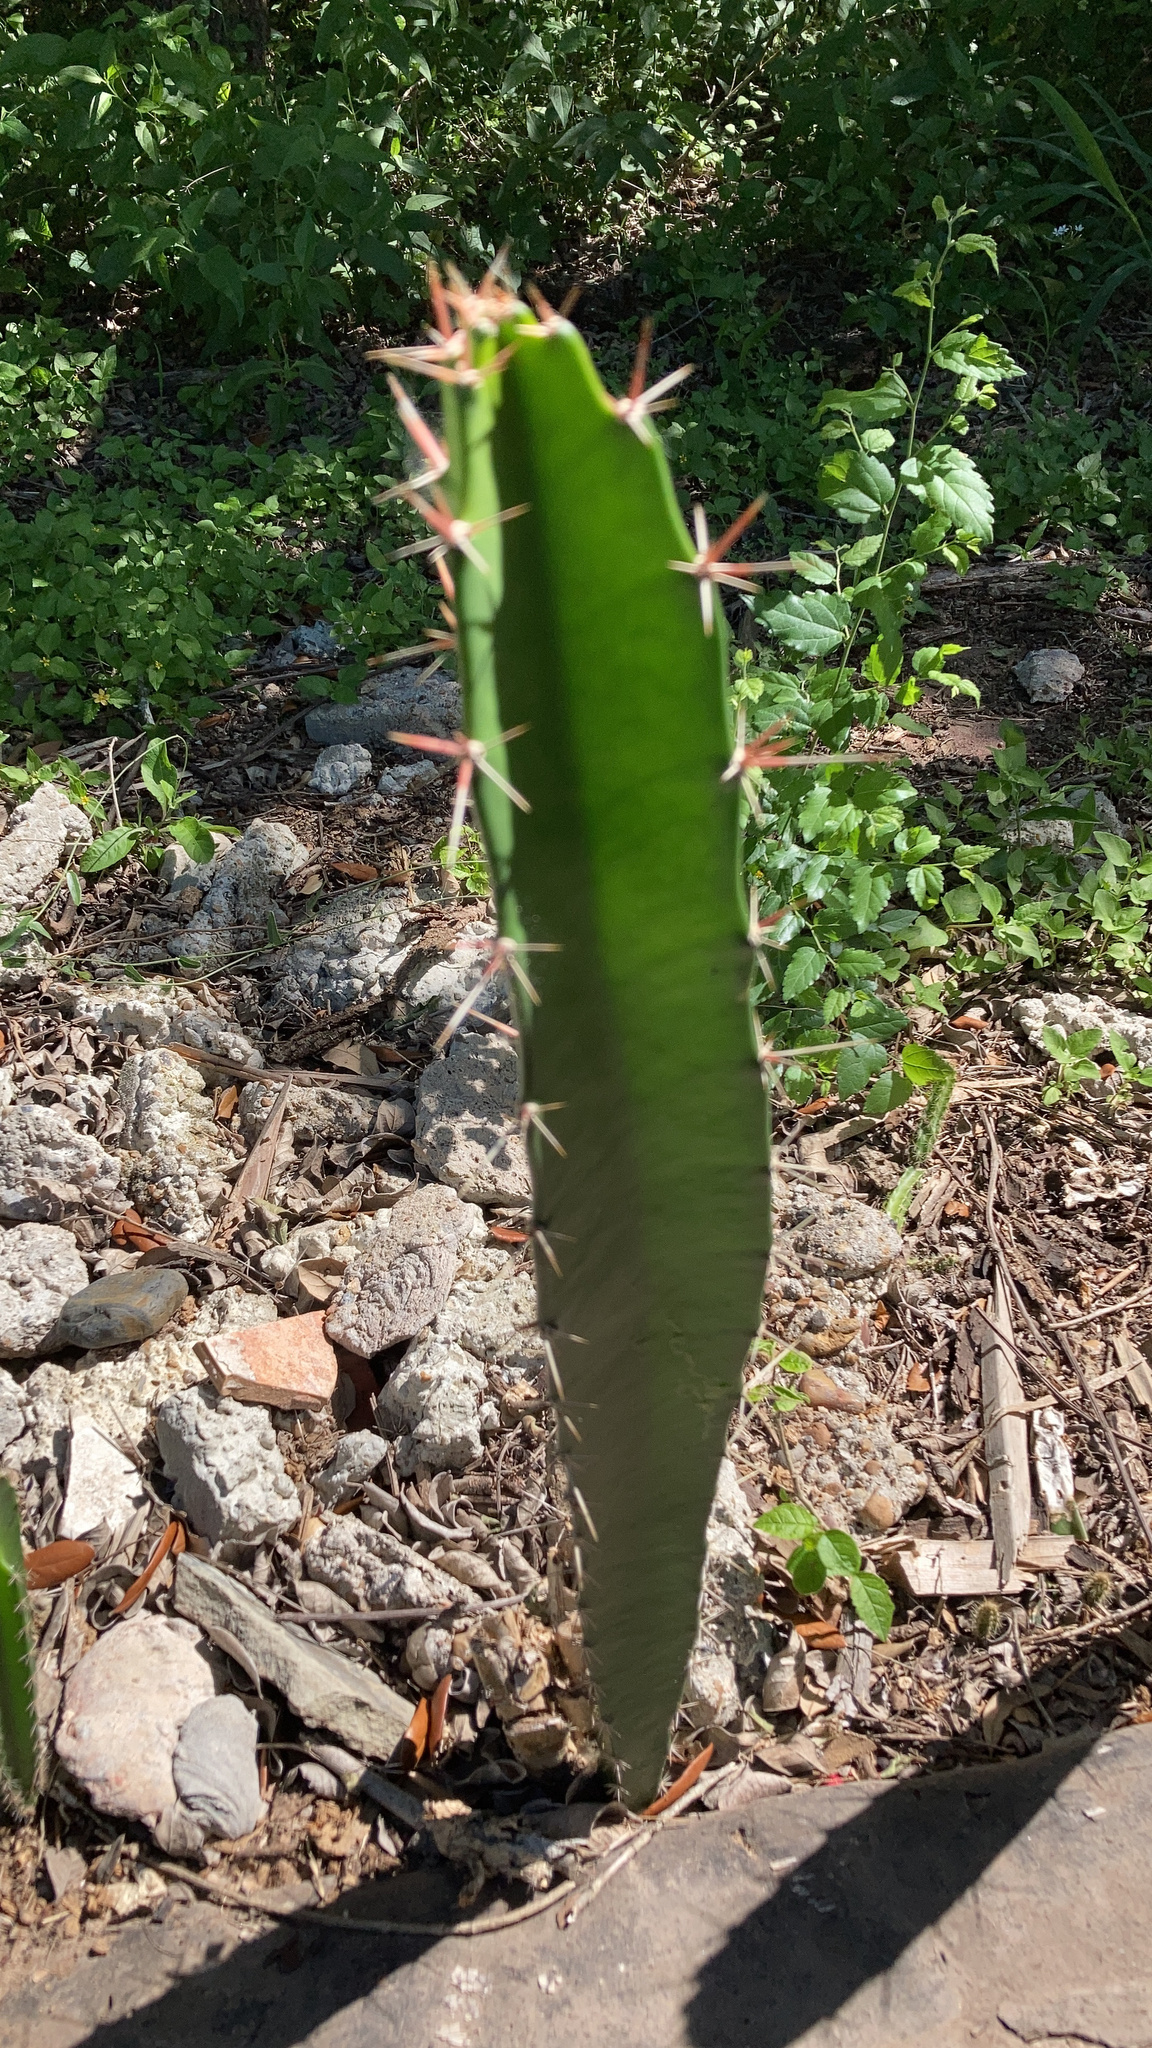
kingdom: Plantae
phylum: Tracheophyta
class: Magnoliopsida
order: Caryophyllales
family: Cactaceae
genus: Acanthocereus
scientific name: Acanthocereus tetragonus
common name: Triangle cactus
